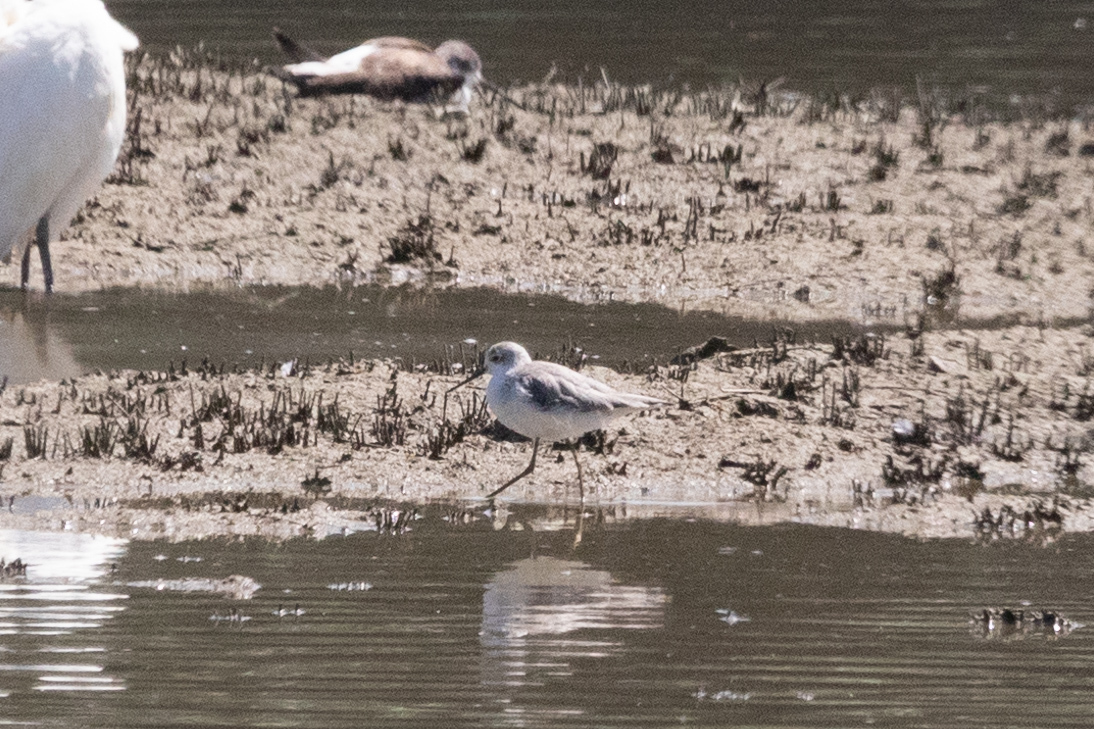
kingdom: Animalia
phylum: Chordata
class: Aves
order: Charadriiformes
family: Scolopacidae
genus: Tringa
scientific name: Tringa stagnatilis
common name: Marsh sandpiper
